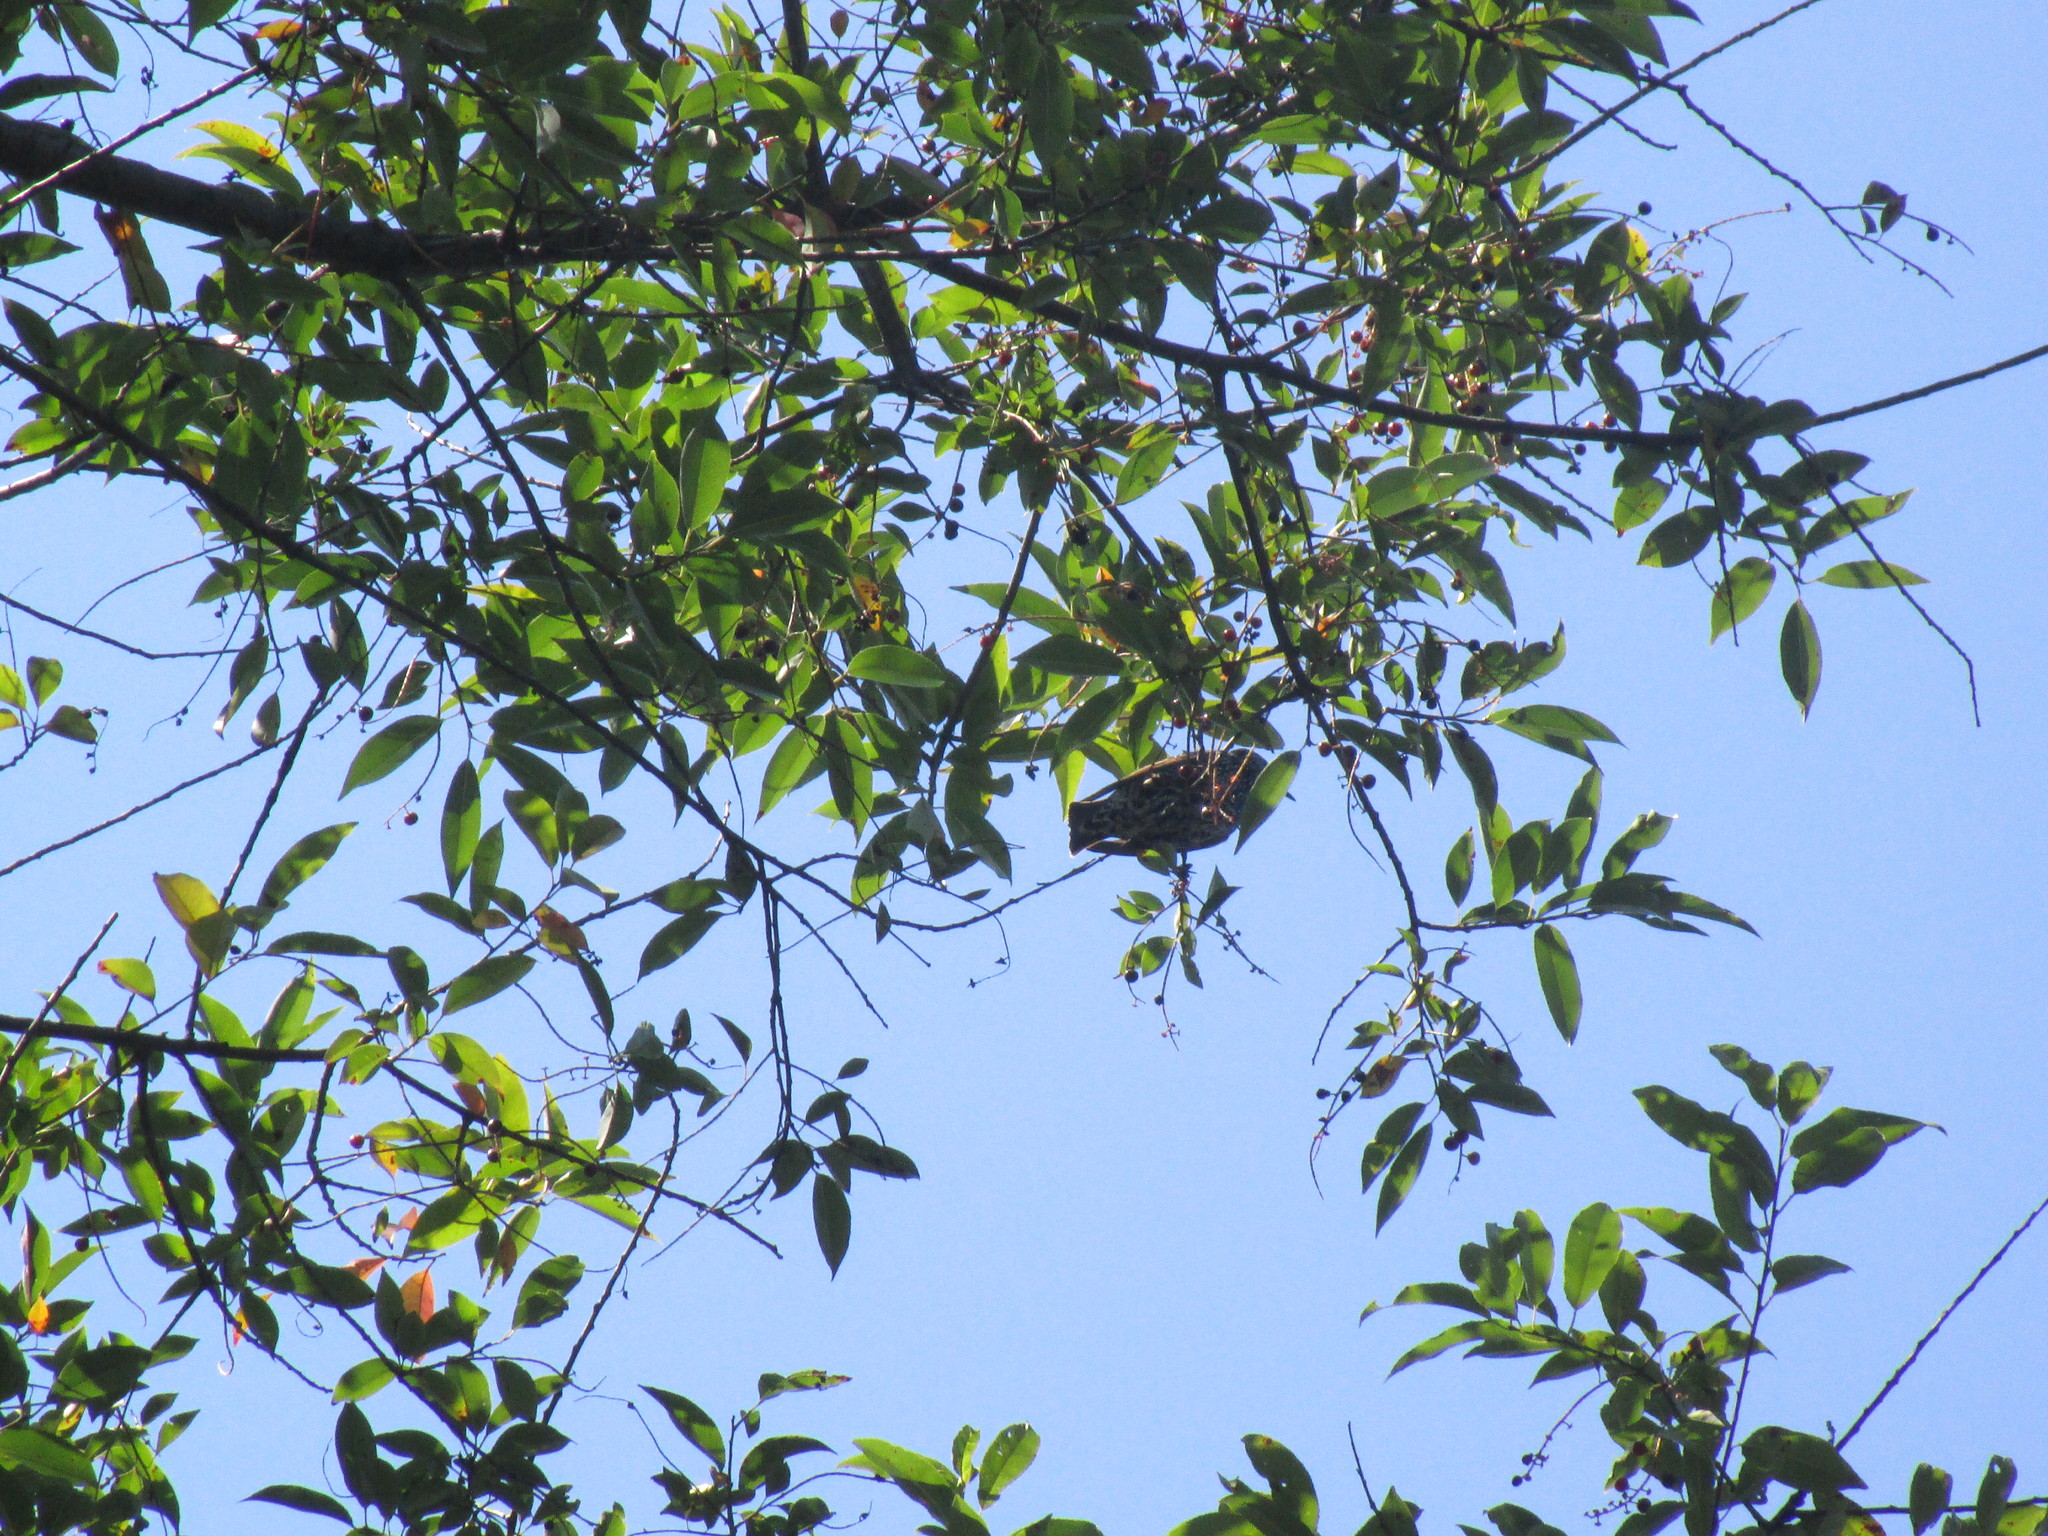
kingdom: Animalia
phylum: Chordata
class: Aves
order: Passeriformes
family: Sturnidae
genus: Sturnus
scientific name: Sturnus vulgaris
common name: Common starling
